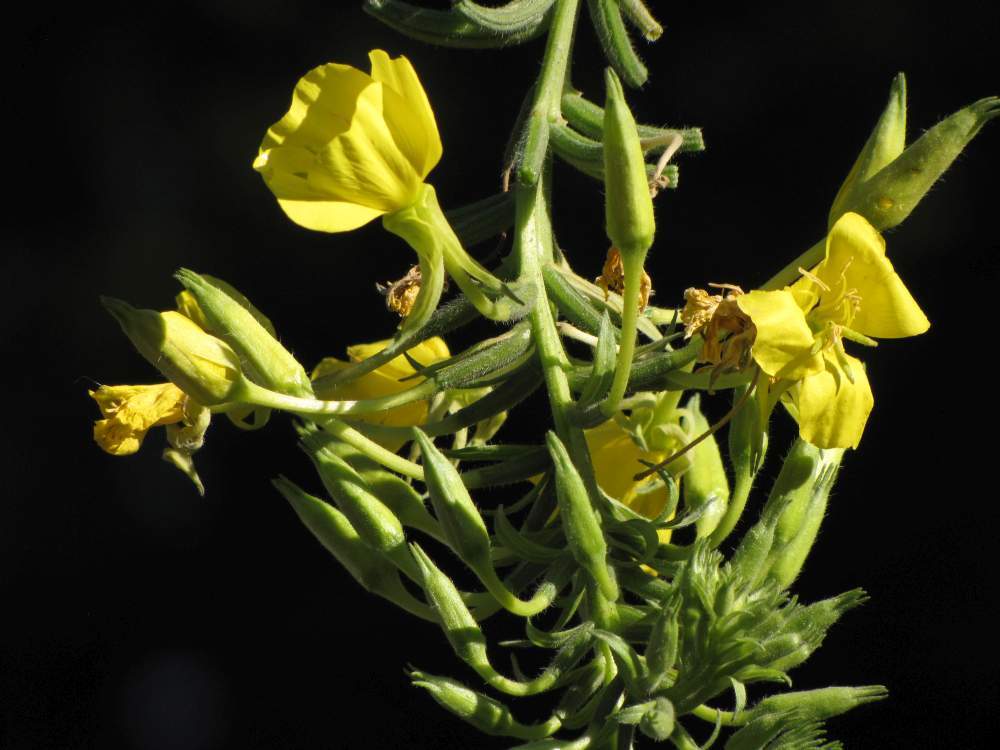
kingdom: Plantae
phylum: Tracheophyta
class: Magnoliopsida
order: Myrtales
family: Onagraceae
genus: Oenothera
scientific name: Oenothera biennis
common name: Common evening-primrose
